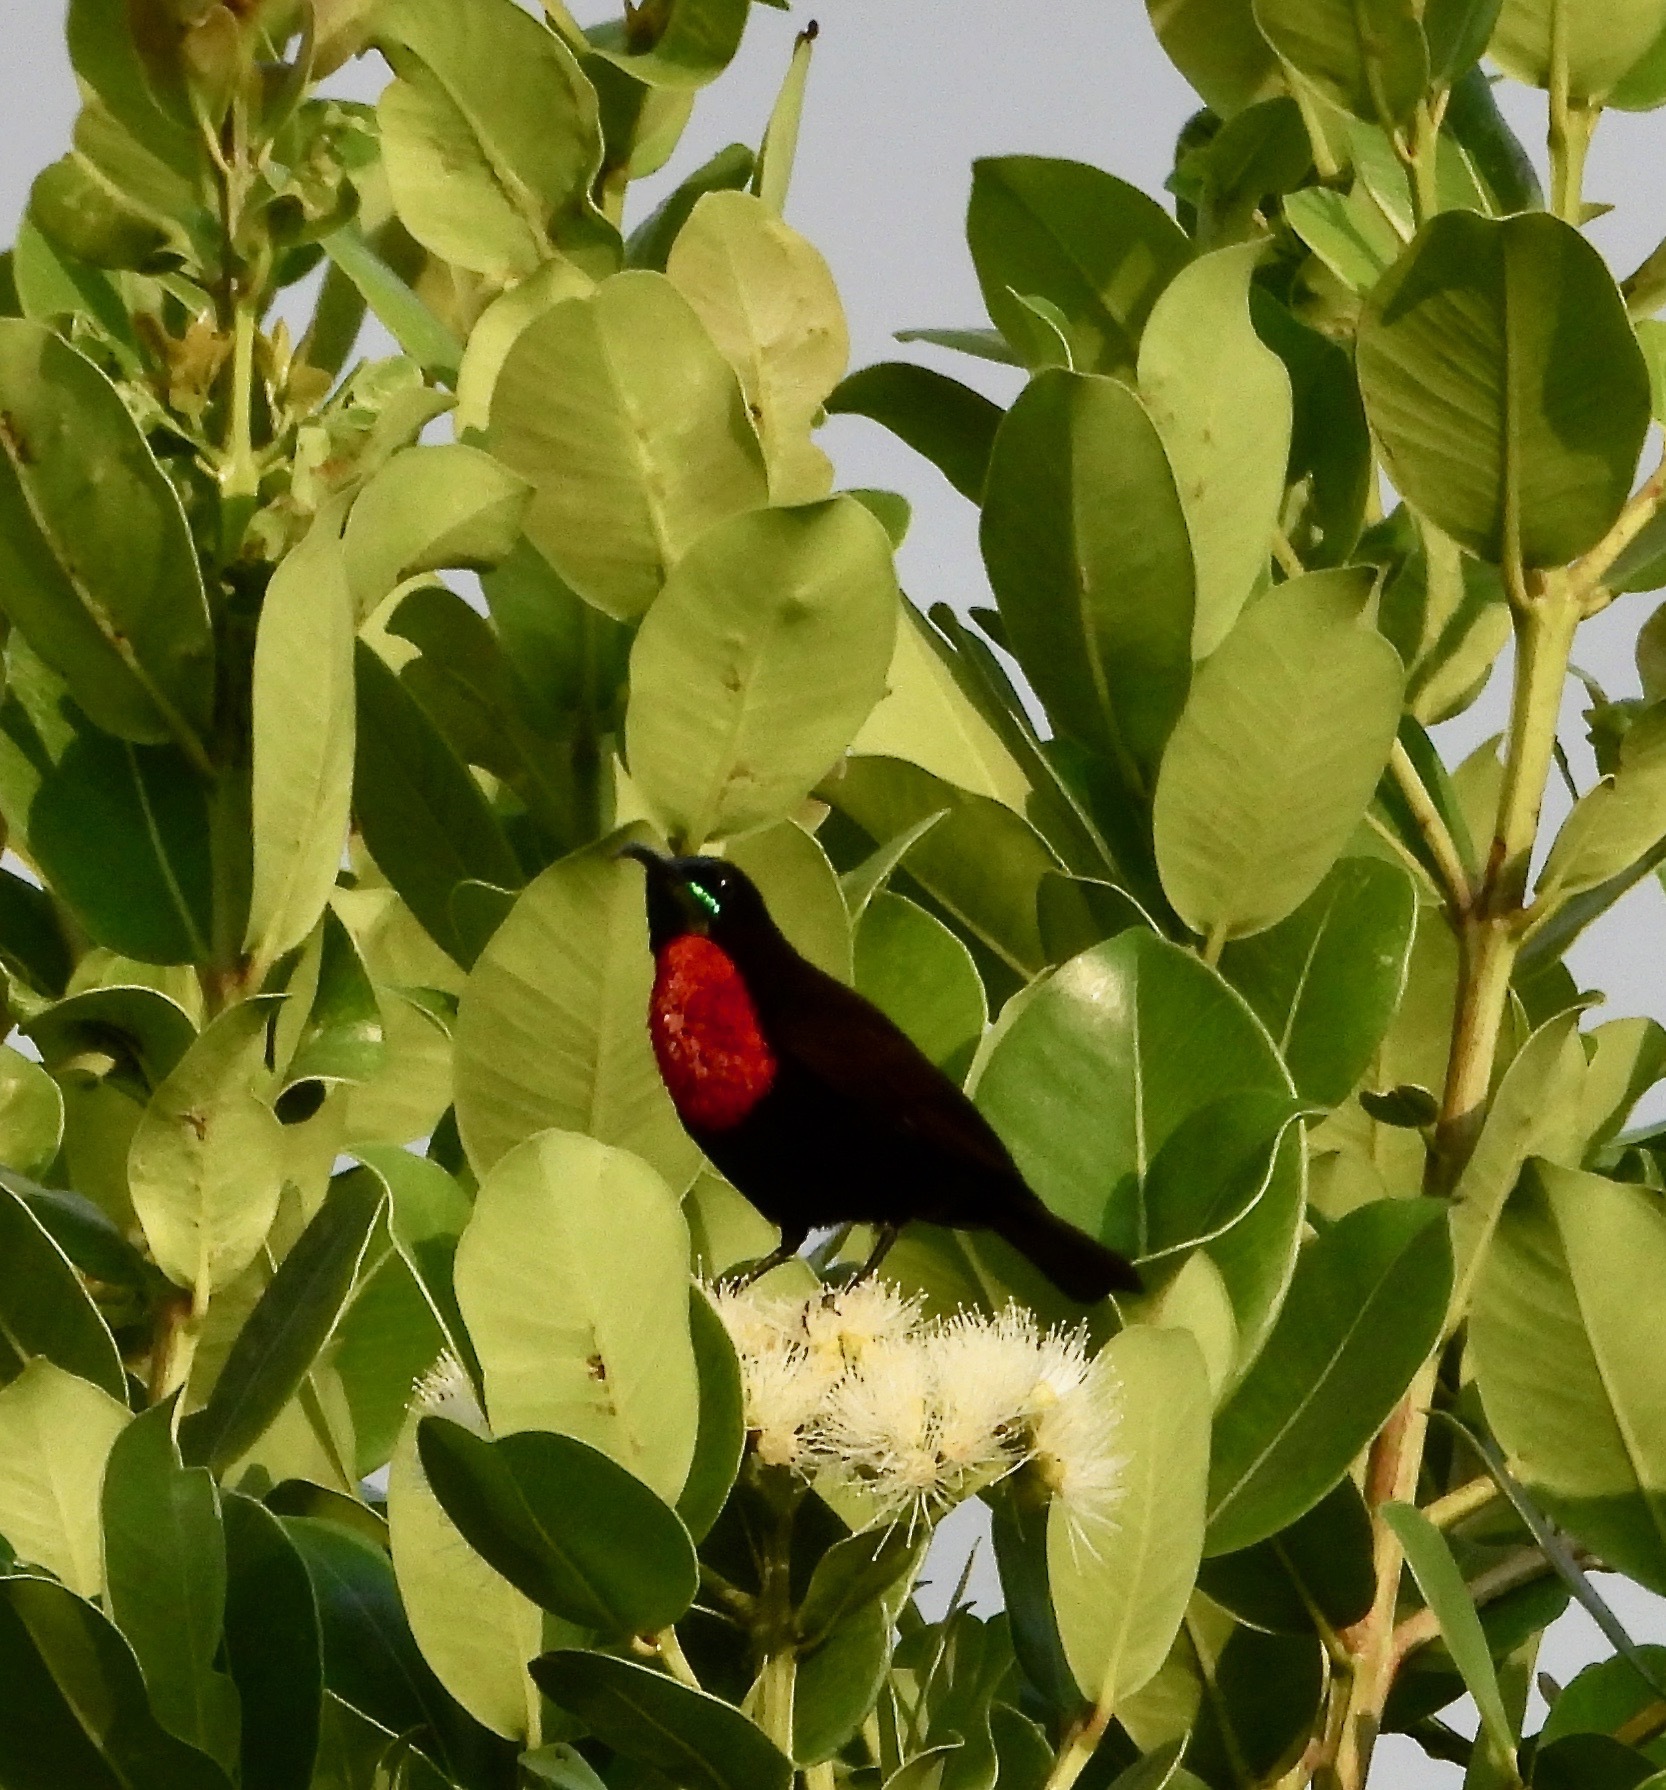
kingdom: Animalia
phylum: Chordata
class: Aves
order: Passeriformes
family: Nectariniidae
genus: Chalcomitra
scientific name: Chalcomitra senegalensis
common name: Scarlet-chested sunbird
